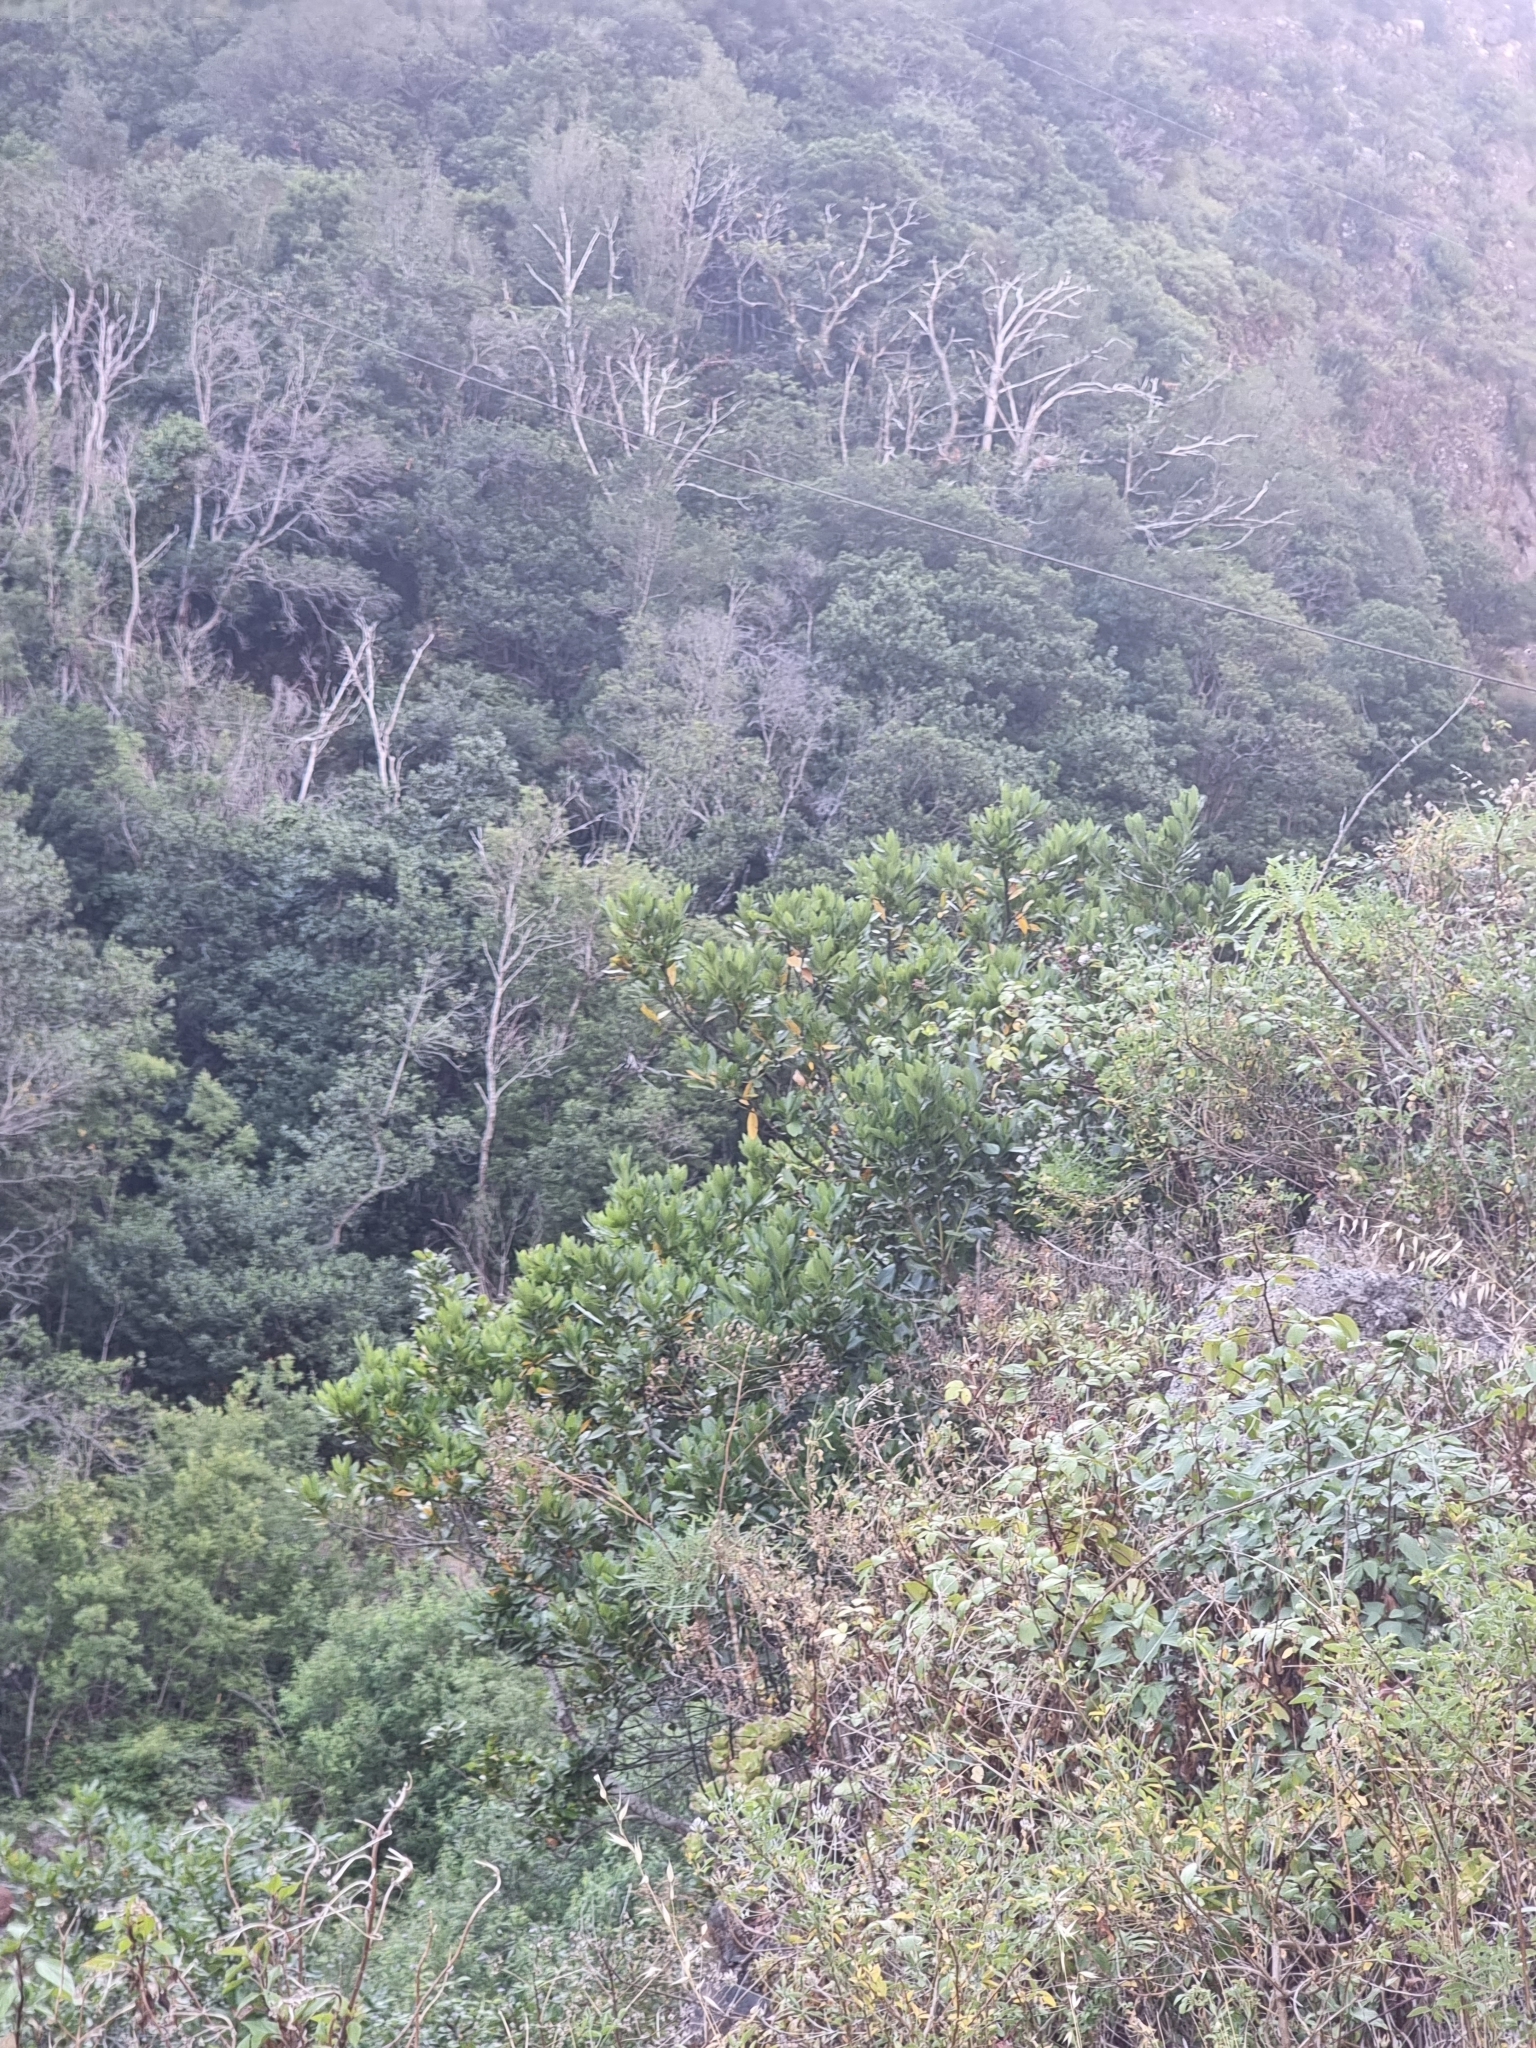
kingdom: Plantae
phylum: Tracheophyta
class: Magnoliopsida
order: Laurales
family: Lauraceae
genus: Laurus
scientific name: Laurus novocanariensis
